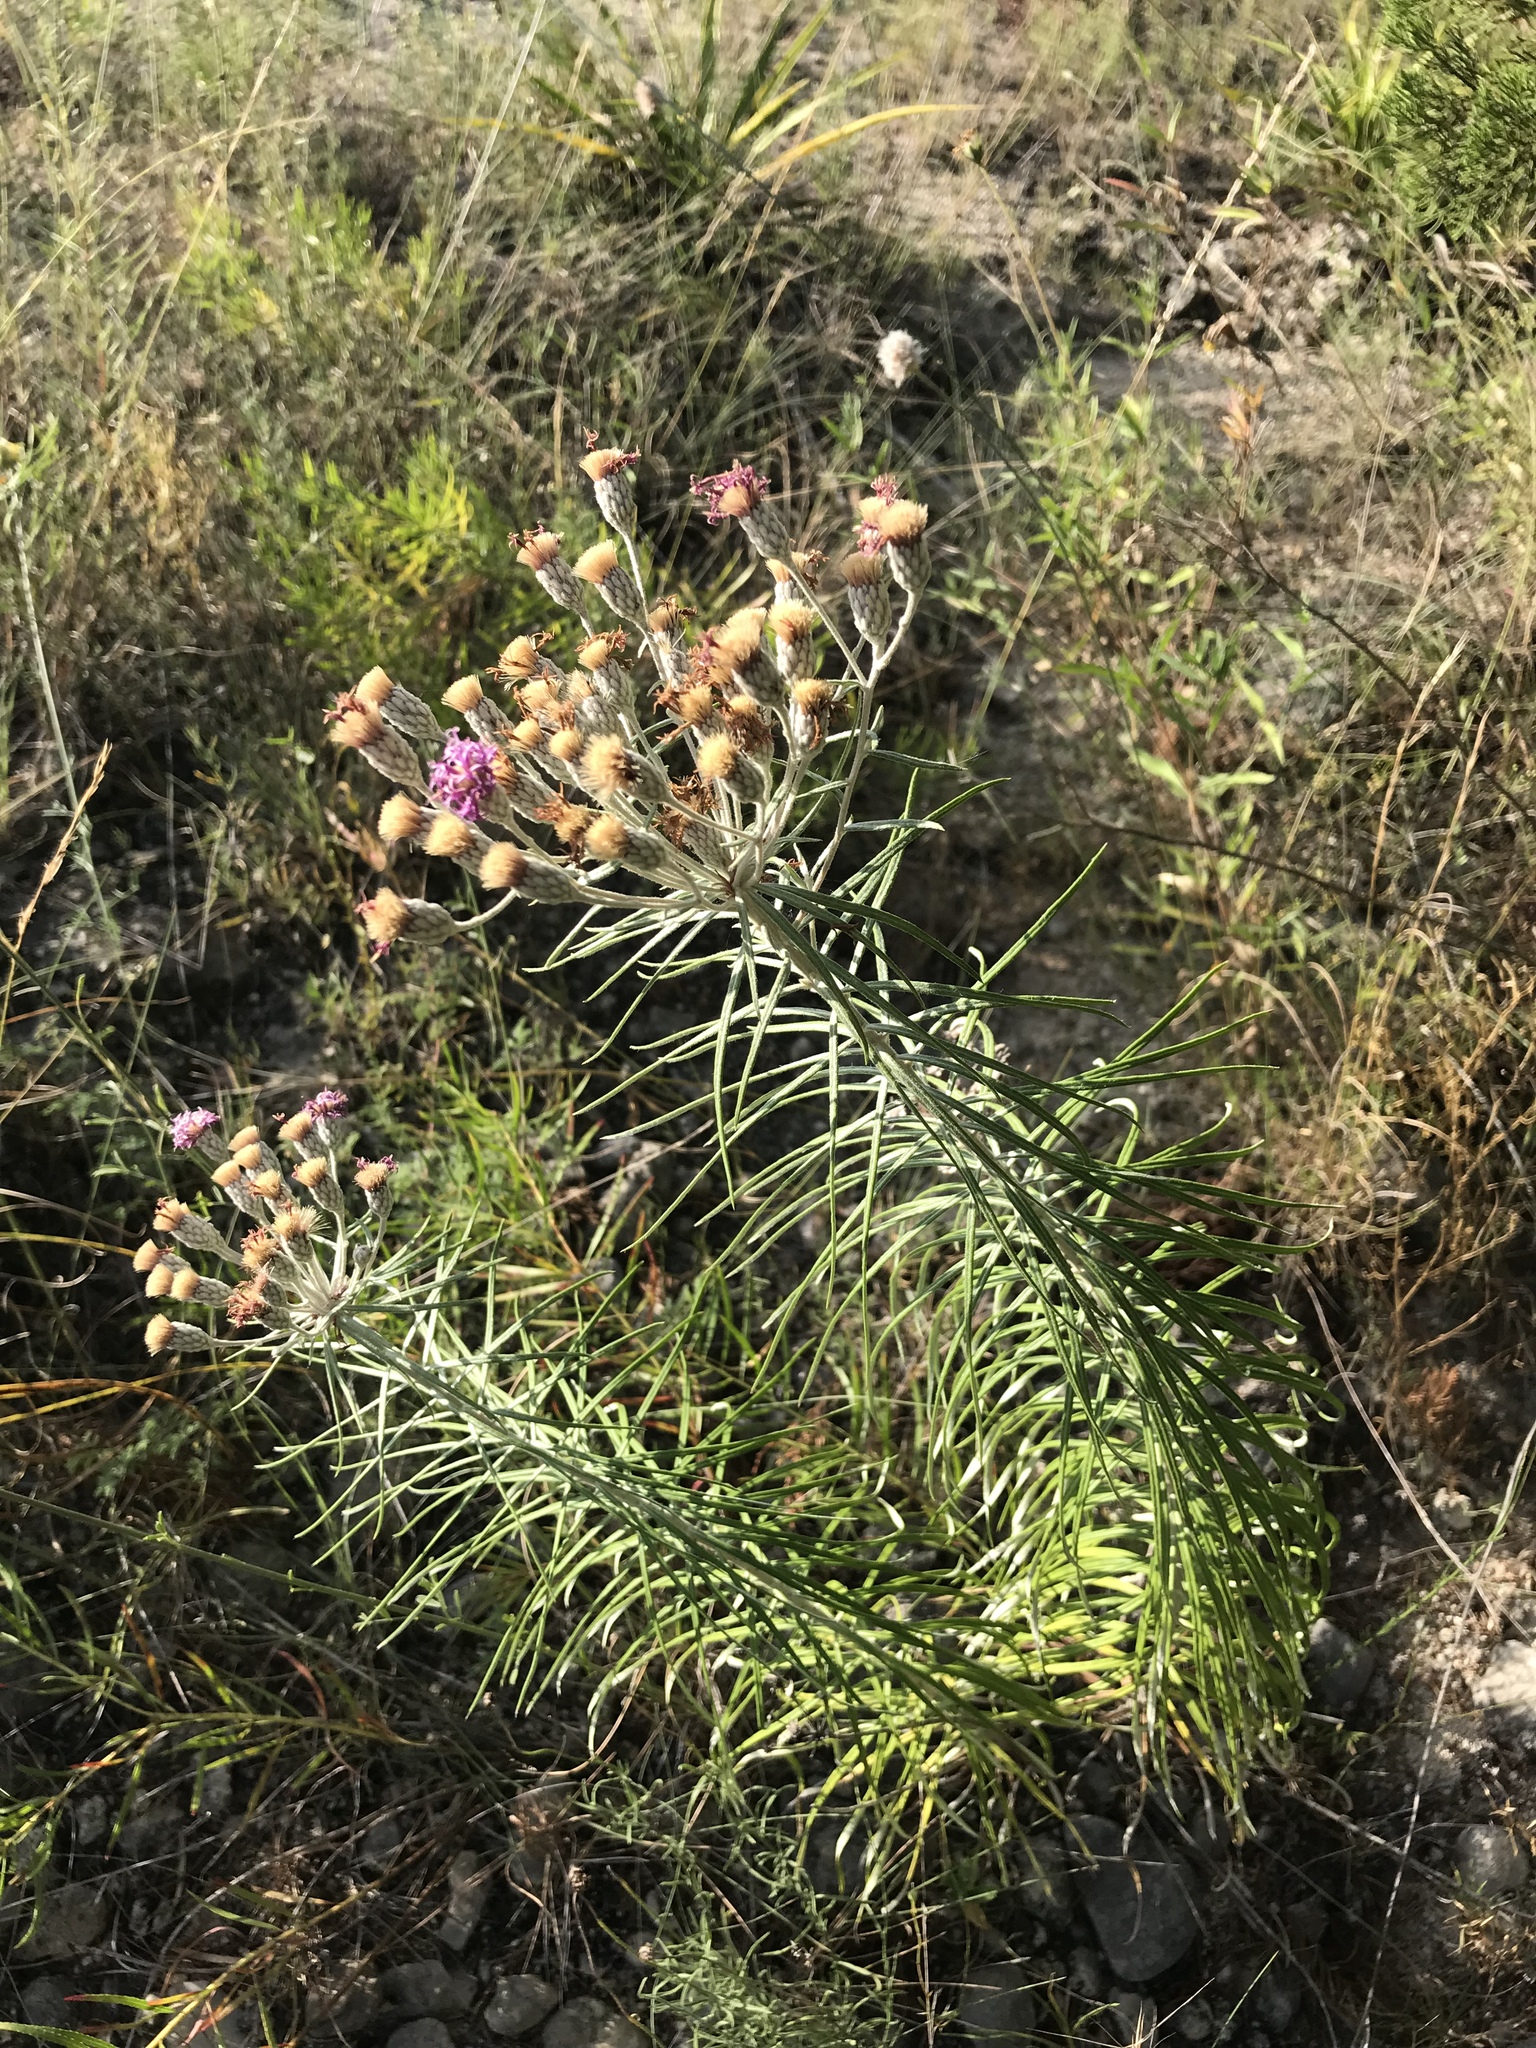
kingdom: Plantae
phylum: Tracheophyta
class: Magnoliopsida
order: Asterales
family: Asteraceae
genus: Vernonia
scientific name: Vernonia lindheimeri
